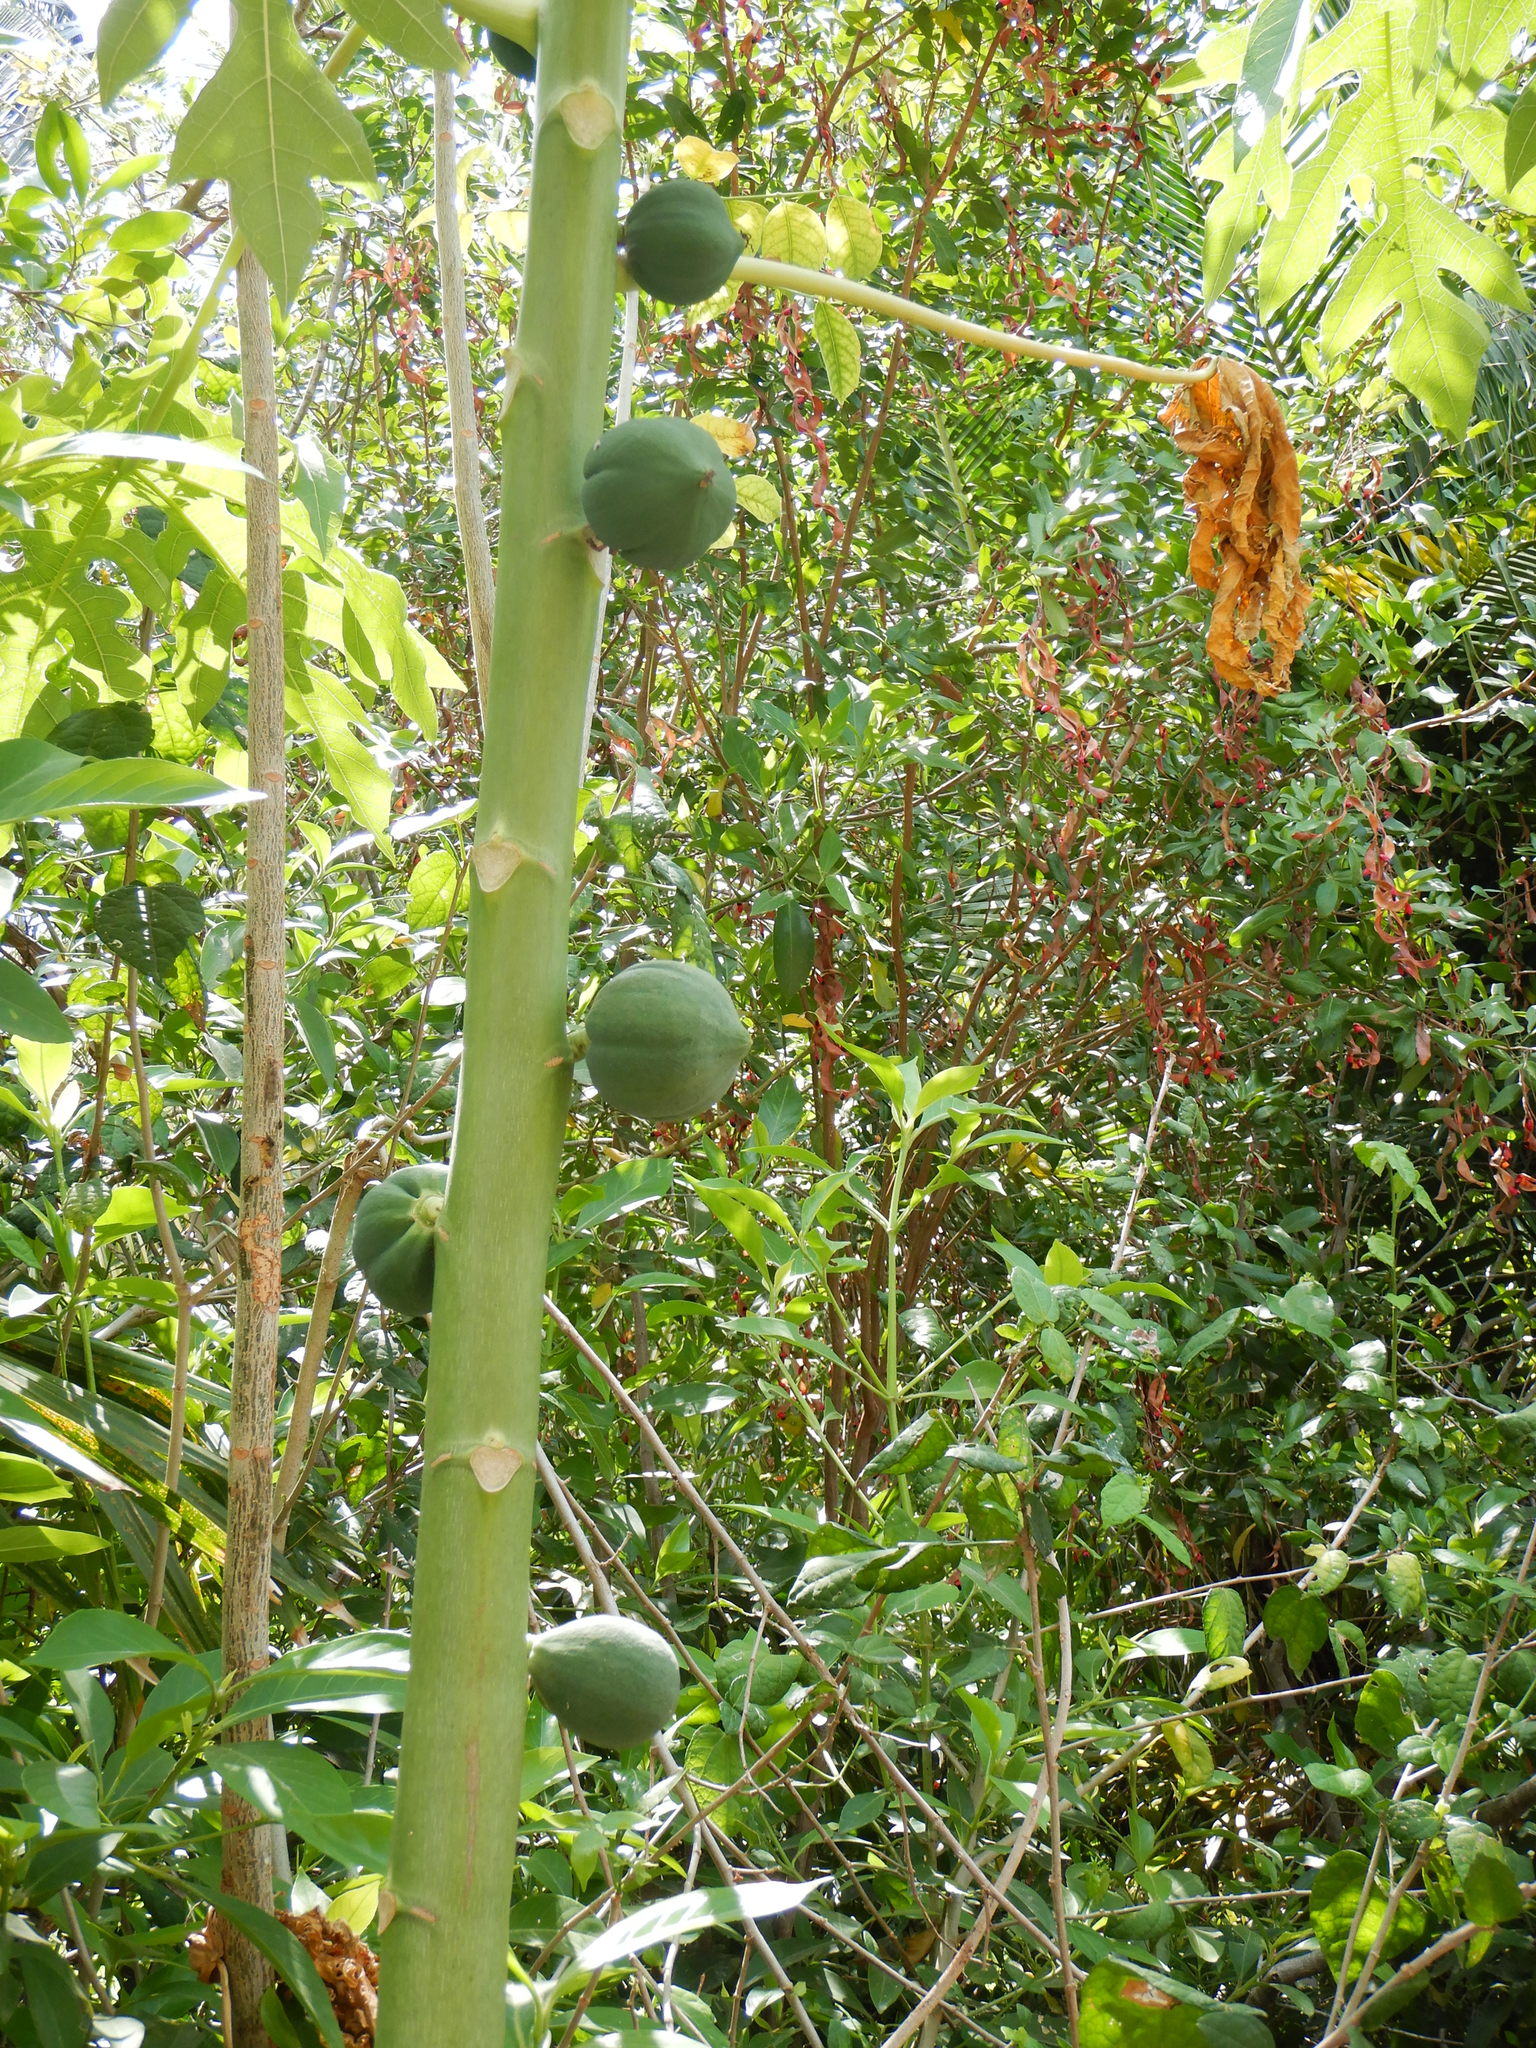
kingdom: Plantae
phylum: Tracheophyta
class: Magnoliopsida
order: Brassicales
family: Caricaceae
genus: Carica
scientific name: Carica papaya
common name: Papaya
